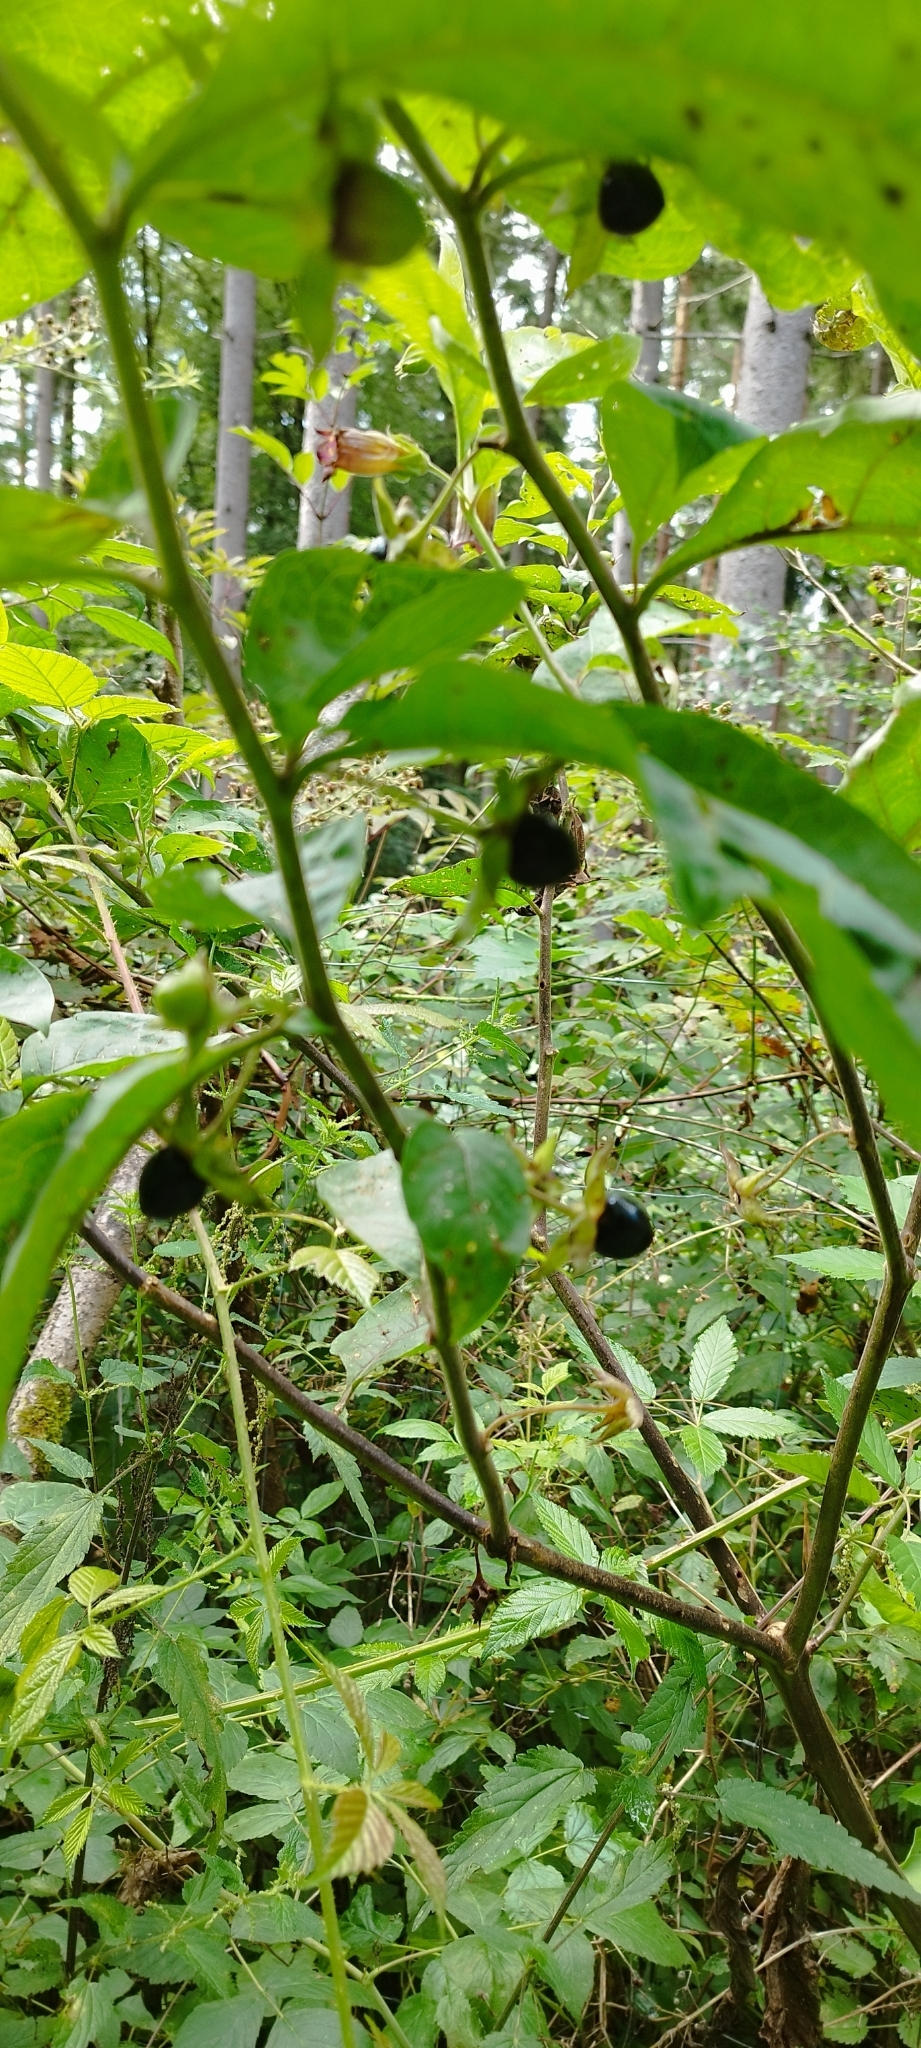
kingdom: Plantae
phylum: Tracheophyta
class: Magnoliopsida
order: Solanales
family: Solanaceae
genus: Atropa
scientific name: Atropa belladonna
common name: Deadly nightshade
